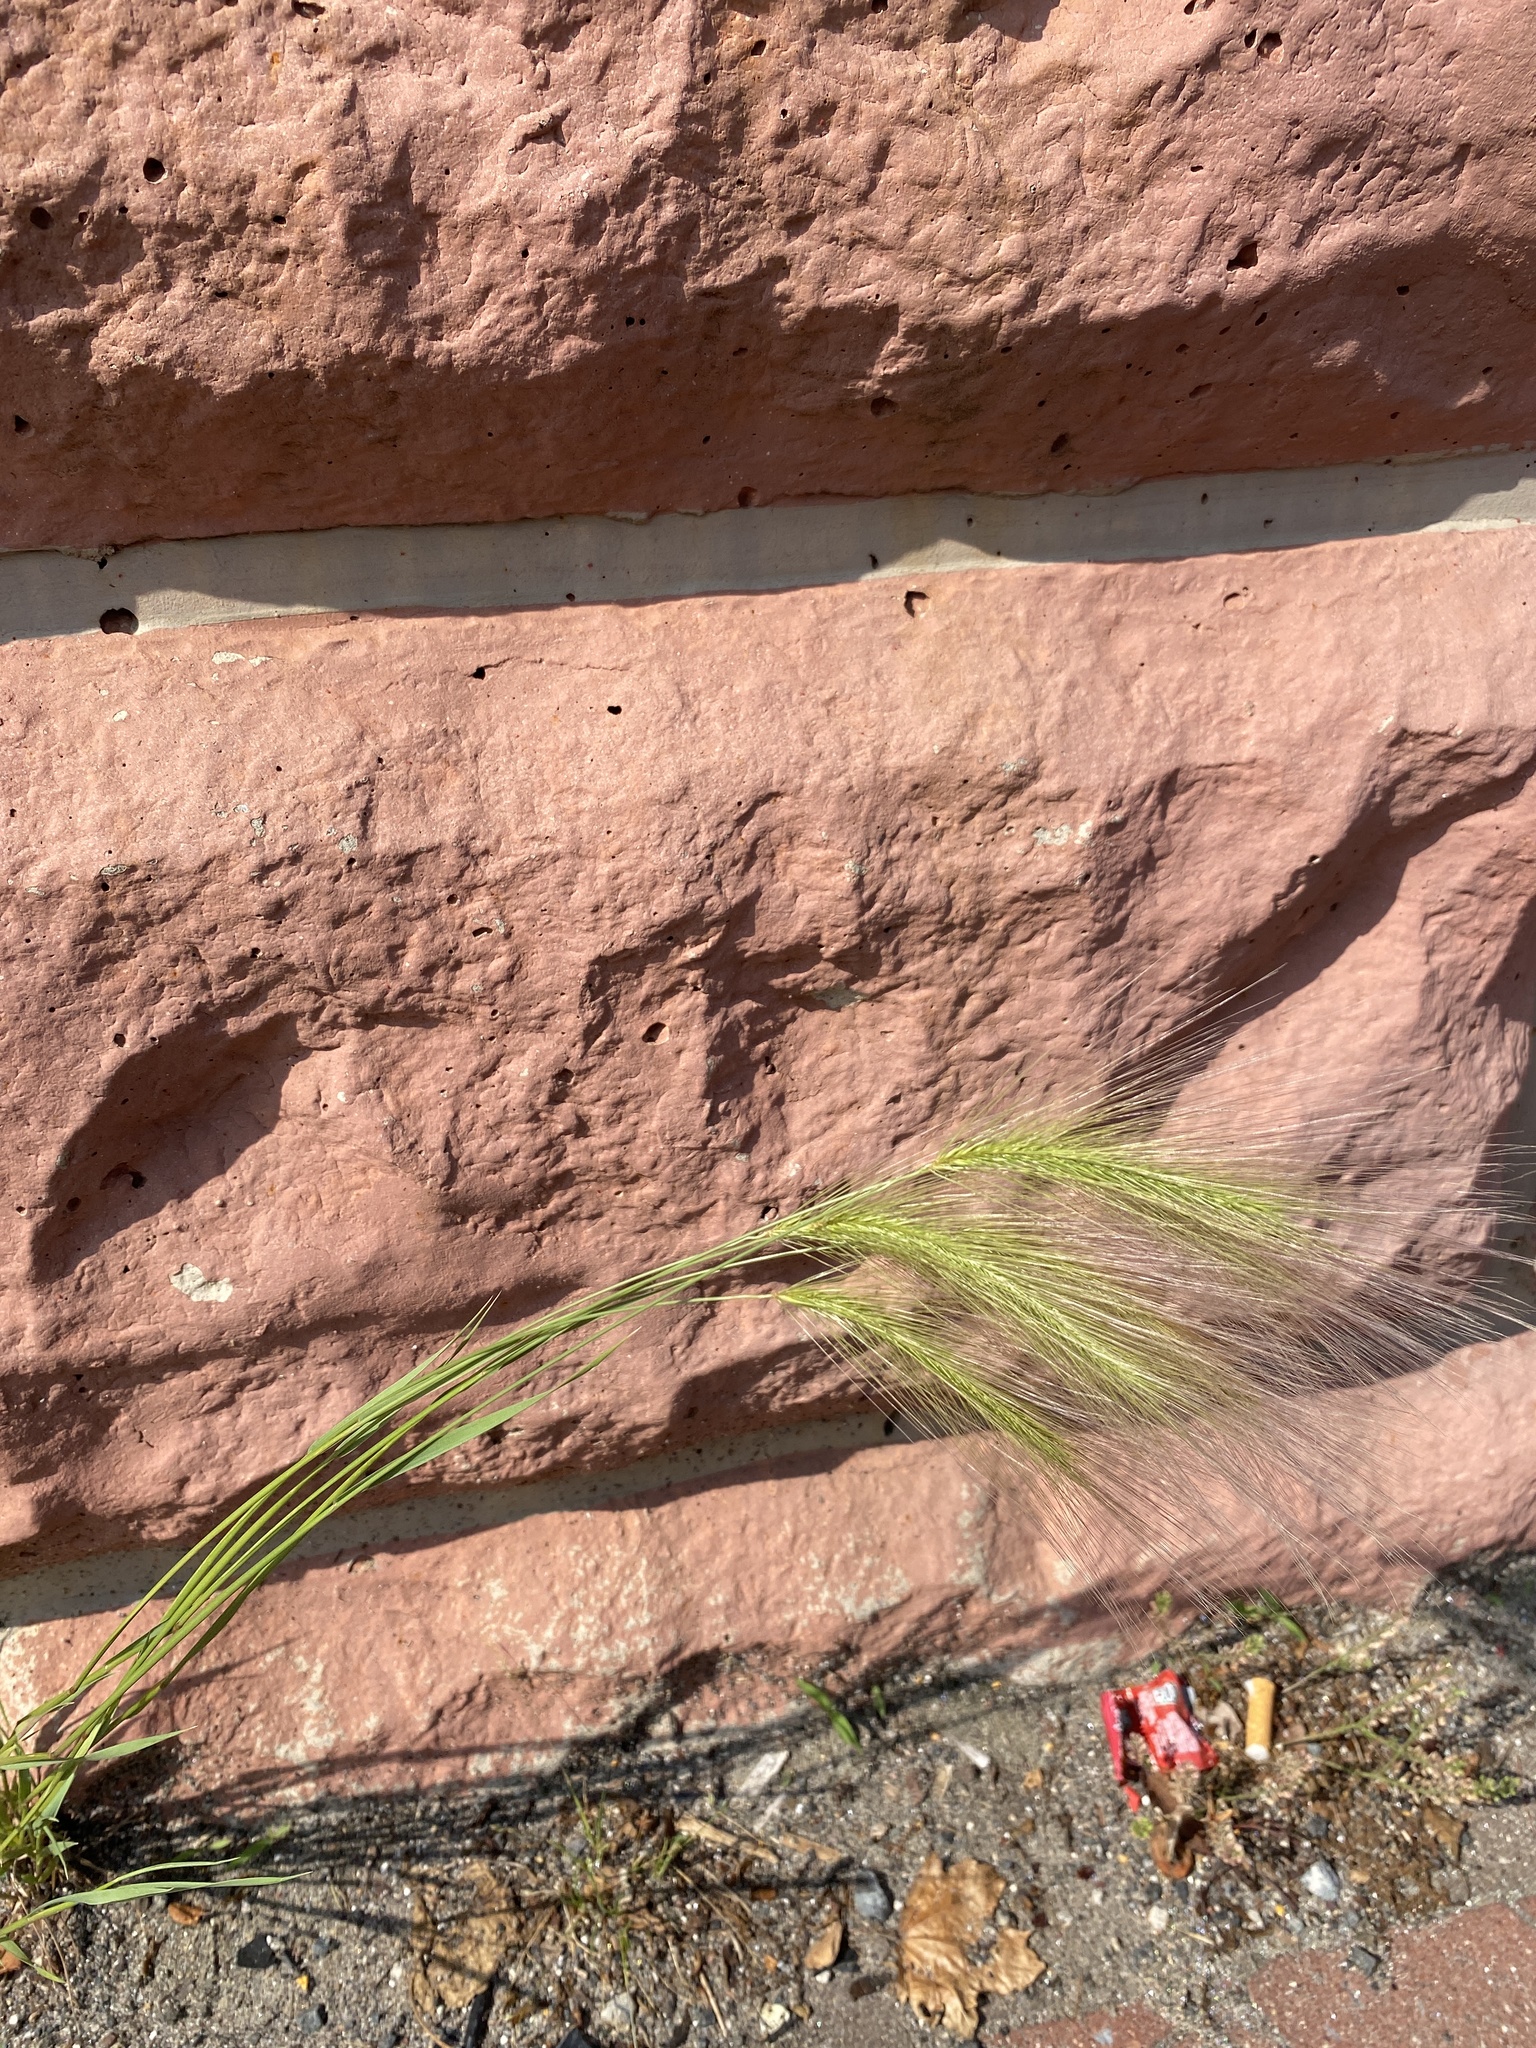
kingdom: Plantae
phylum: Tracheophyta
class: Liliopsida
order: Poales
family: Poaceae
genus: Hordeum
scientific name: Hordeum jubatum
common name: Foxtail barley
